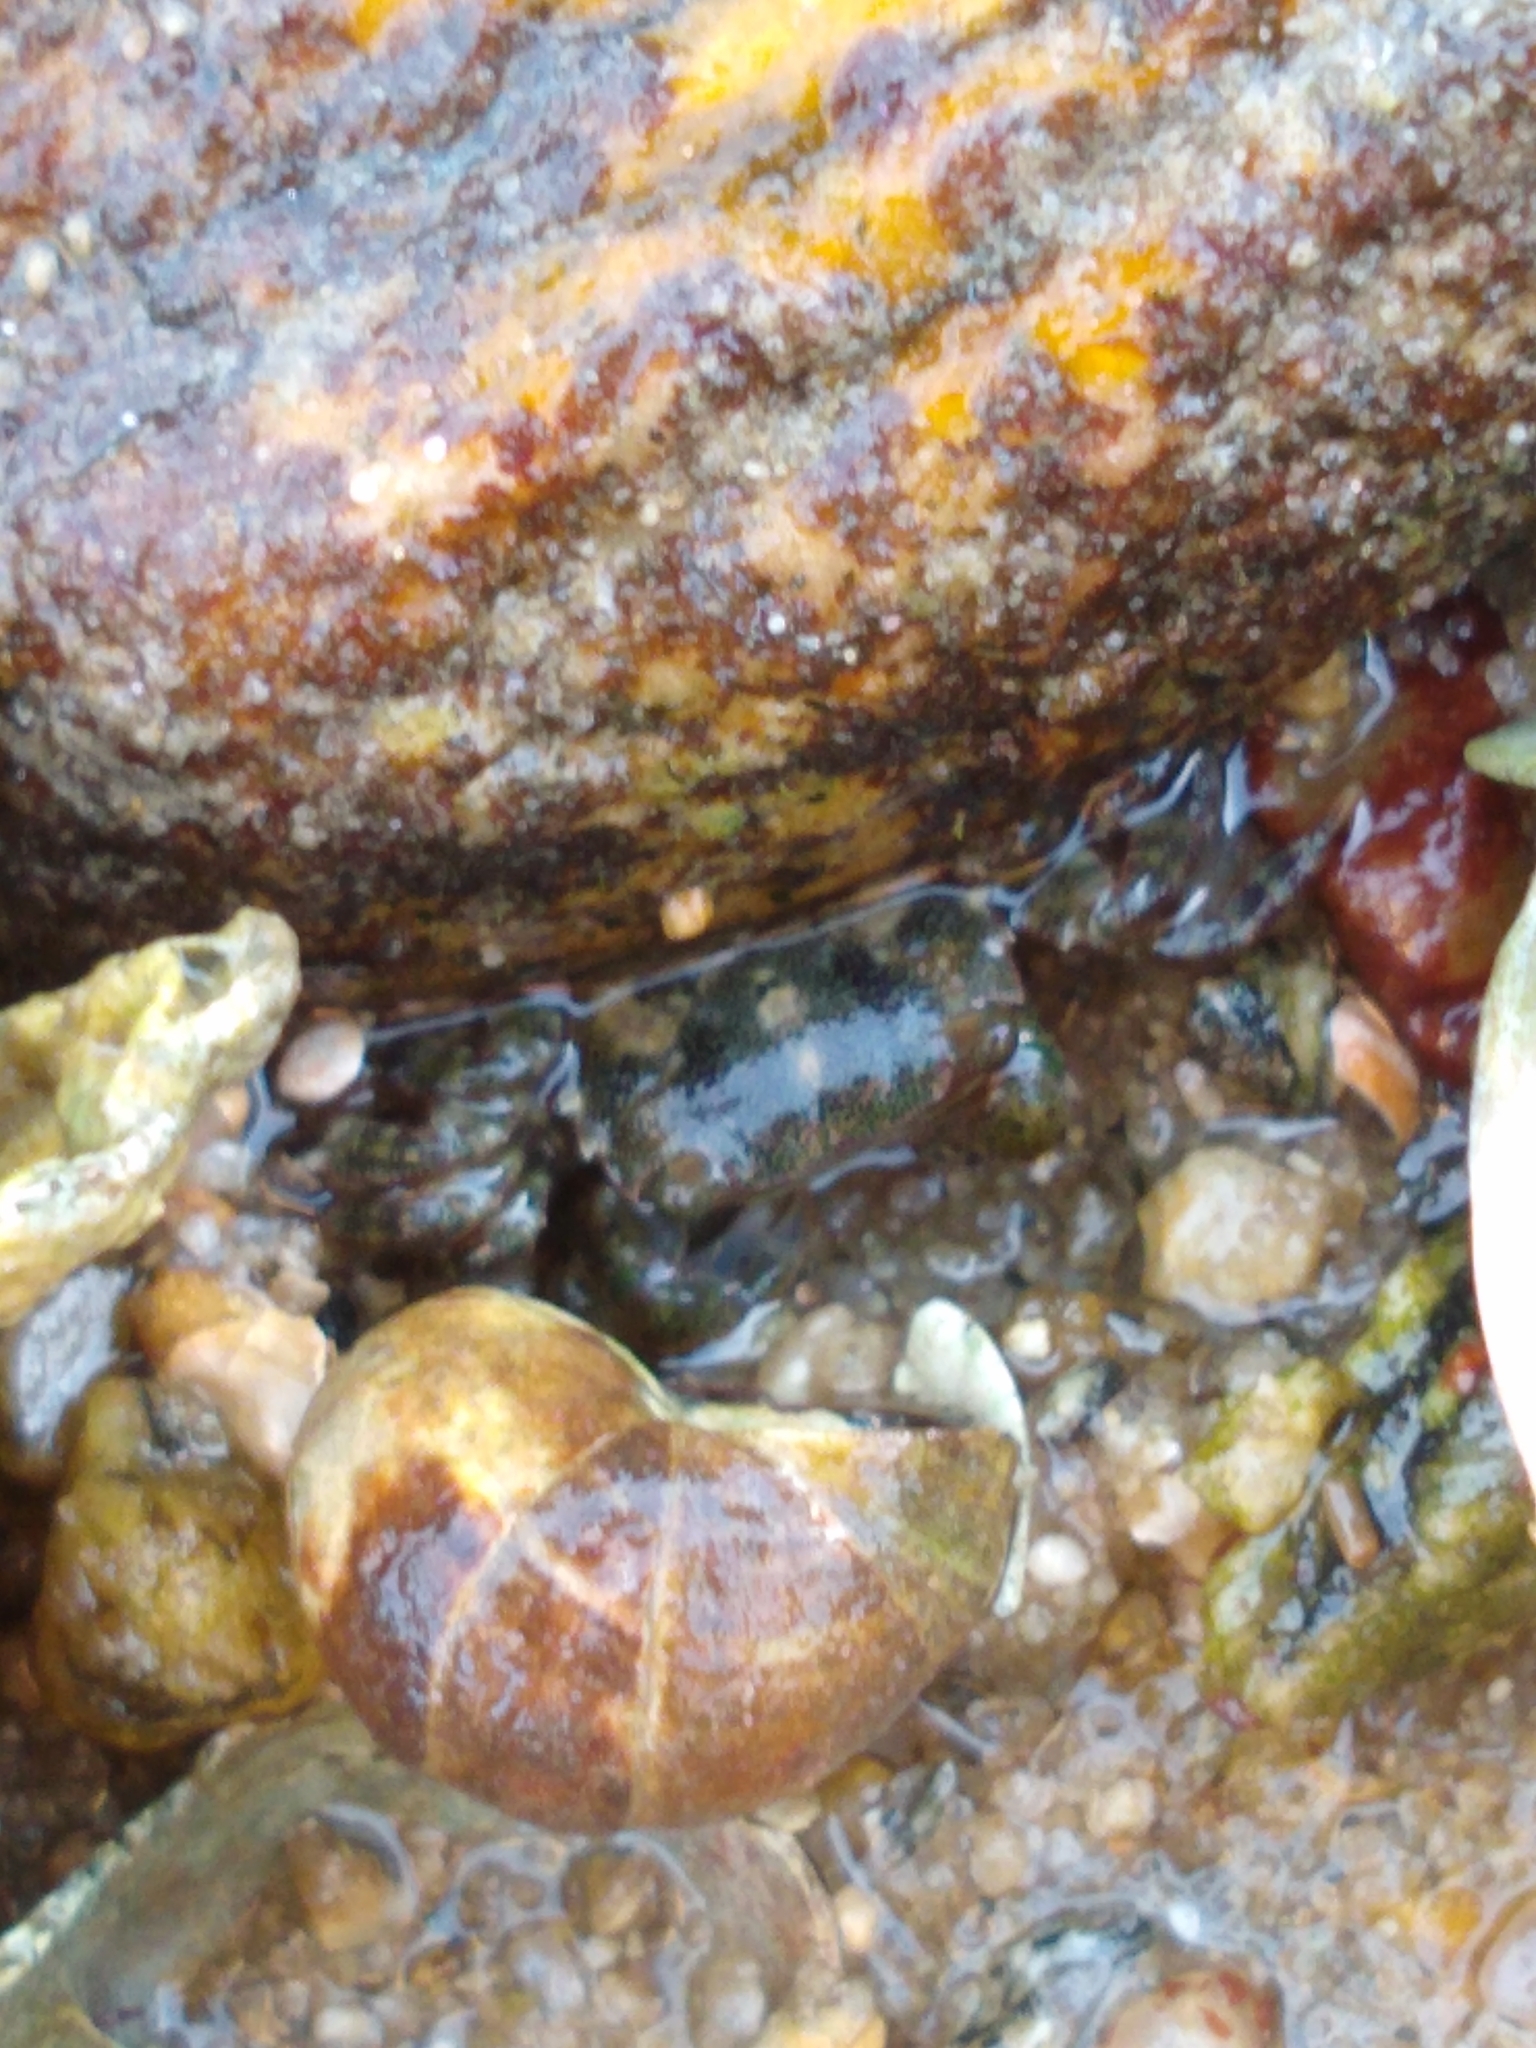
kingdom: Animalia
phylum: Mollusca
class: Gastropoda
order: Littorinimorpha
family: Littorinidae
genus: Littorina
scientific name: Littorina littorea
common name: Common periwinkle
